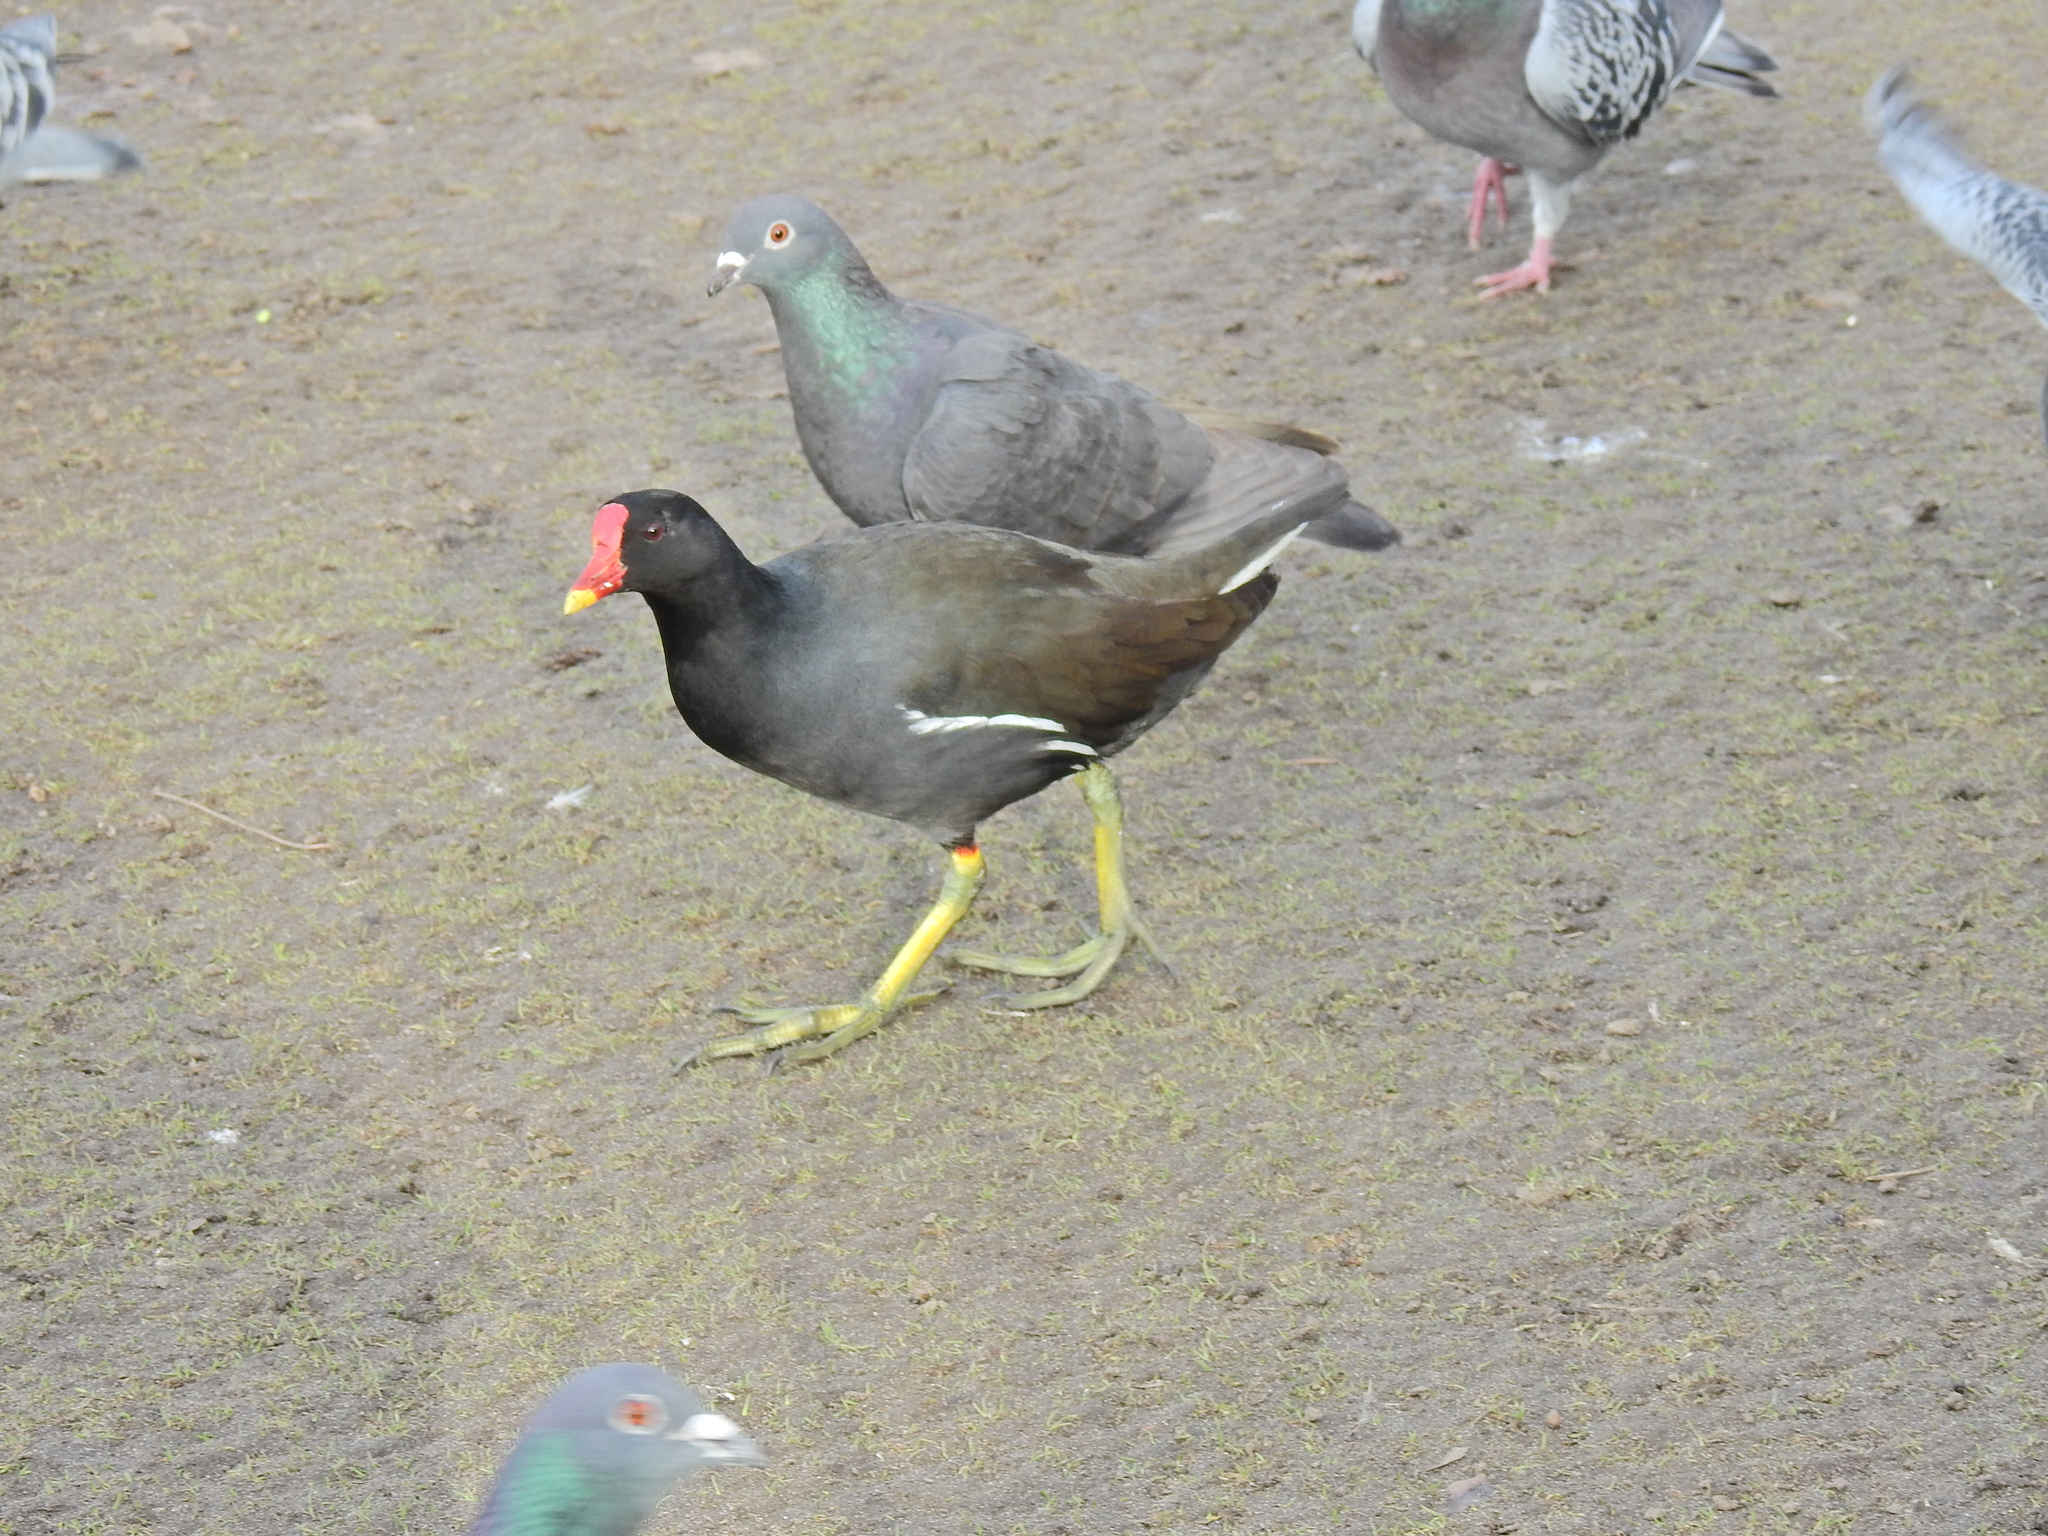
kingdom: Animalia
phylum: Chordata
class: Aves
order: Gruiformes
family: Rallidae
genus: Gallinula
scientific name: Gallinula chloropus
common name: Common moorhen
